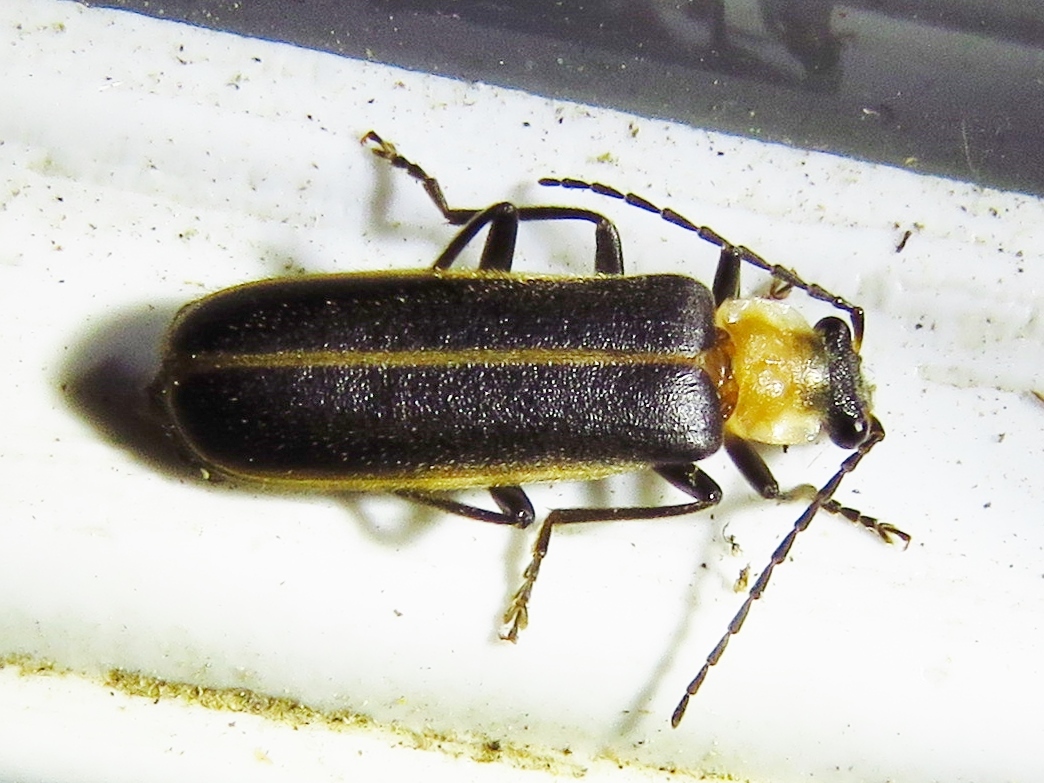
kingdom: Animalia
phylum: Arthropoda
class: Insecta
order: Coleoptera
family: Cantharidae
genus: Podabrus
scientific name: Podabrus flavicollis
